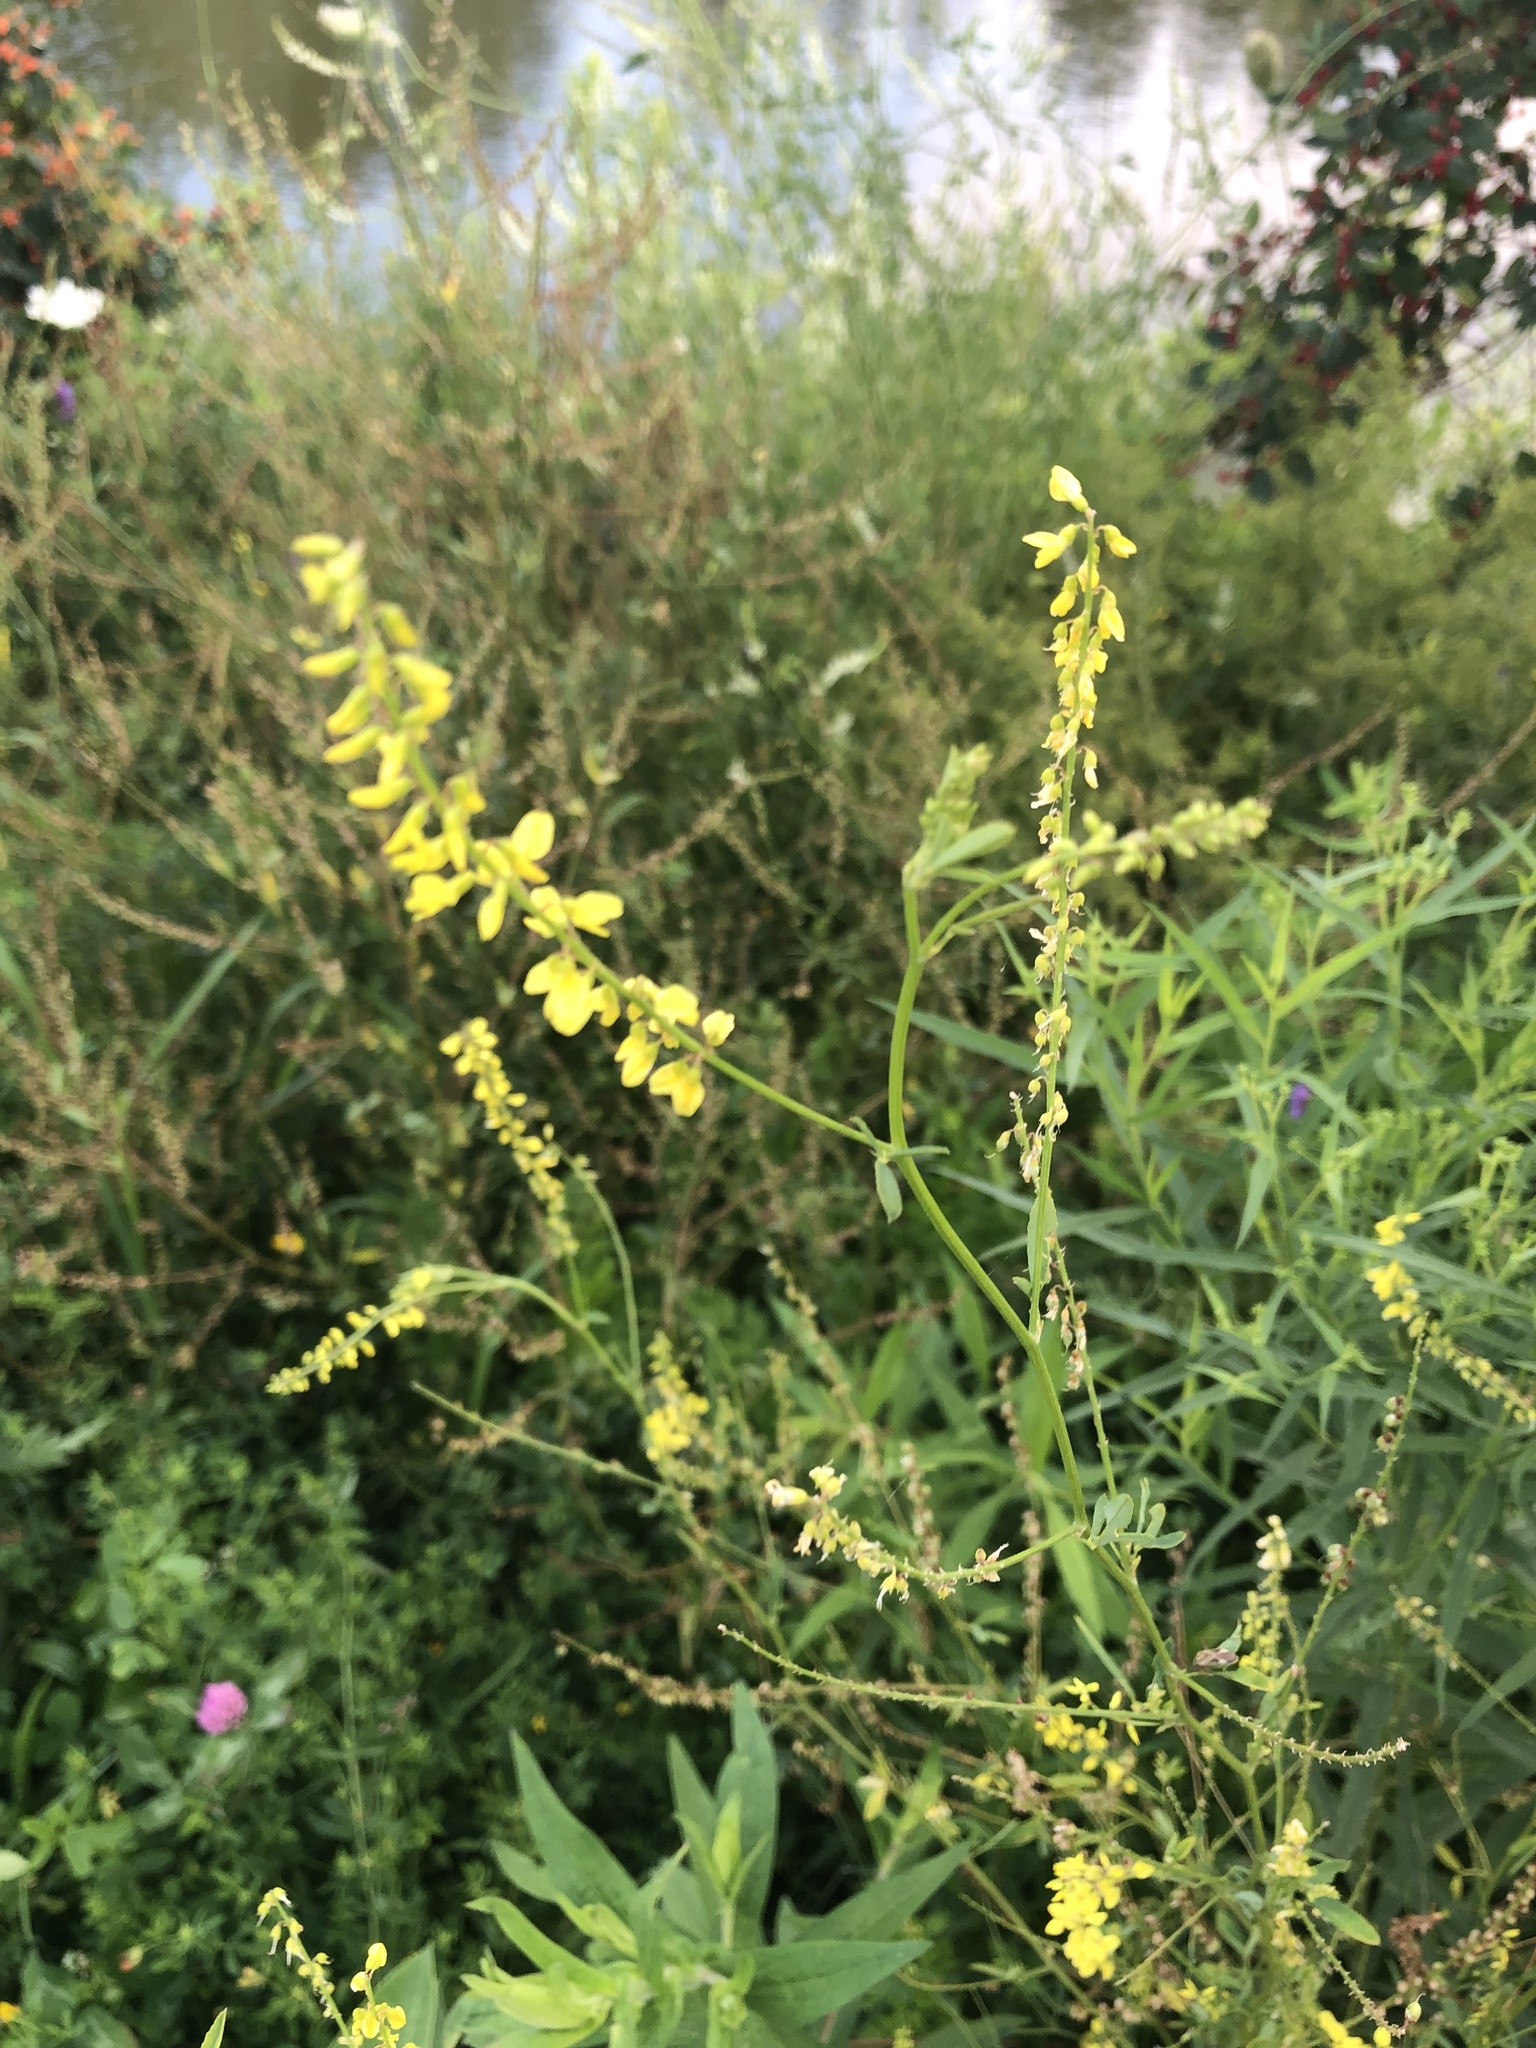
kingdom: Plantae
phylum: Tracheophyta
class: Magnoliopsida
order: Fabales
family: Fabaceae
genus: Melilotus
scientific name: Melilotus officinalis
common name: Sweetclover
